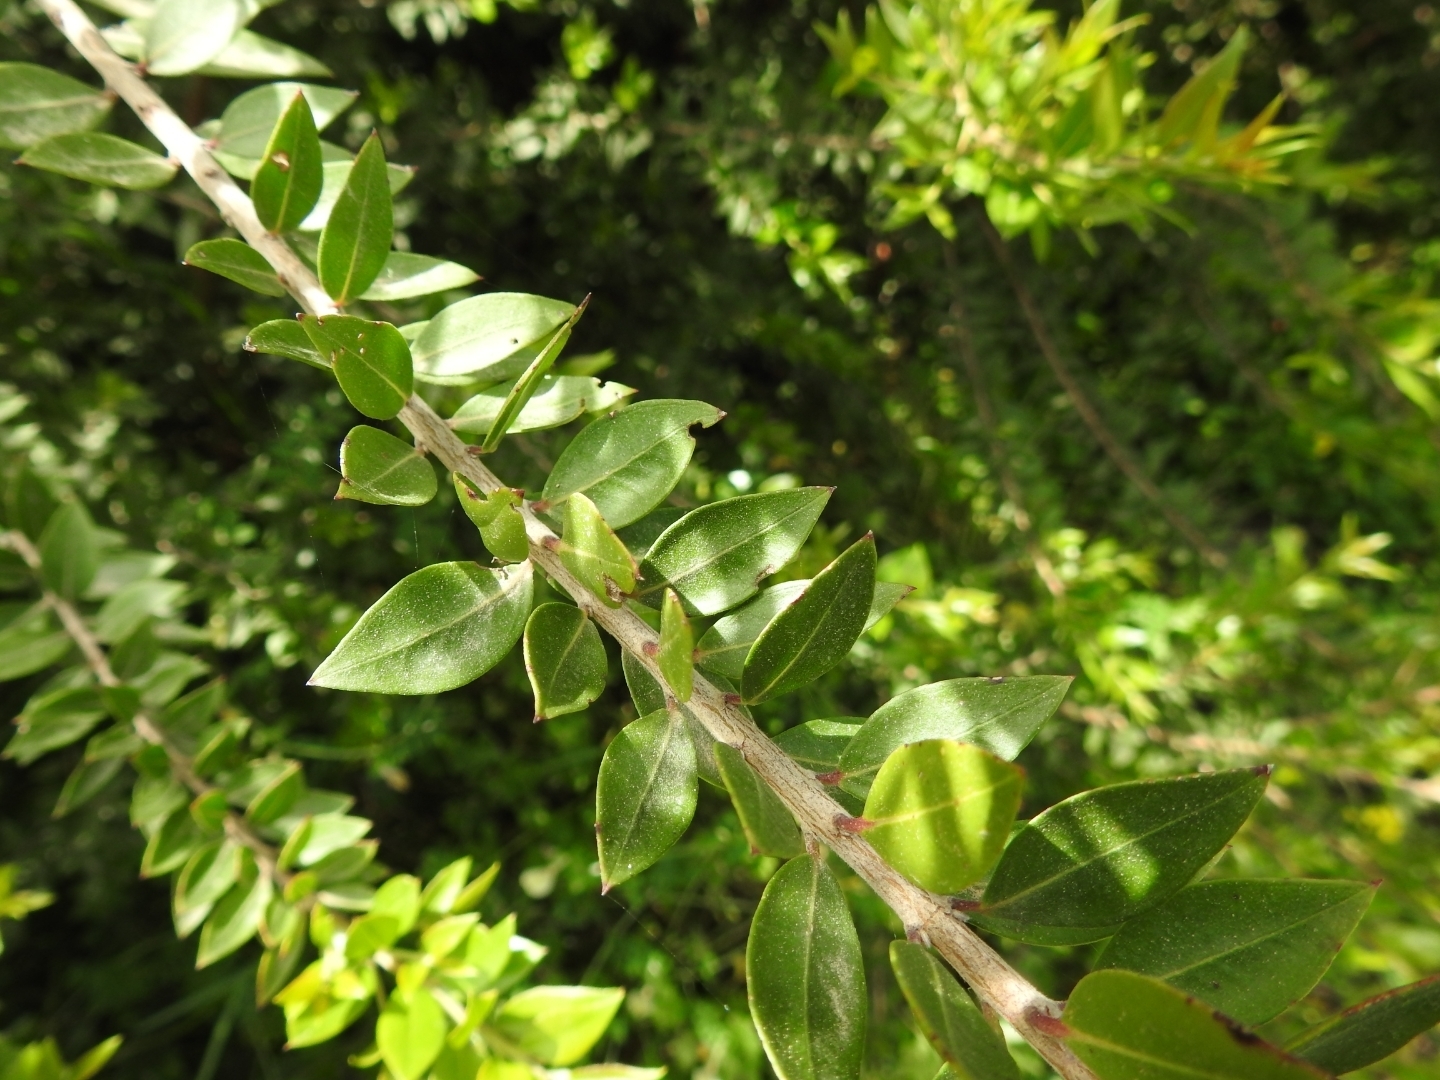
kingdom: Plantae
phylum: Tracheophyta
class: Magnoliopsida
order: Myrtales
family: Myrtaceae
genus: Myrtus
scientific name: Myrtus communis
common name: Myrtle
